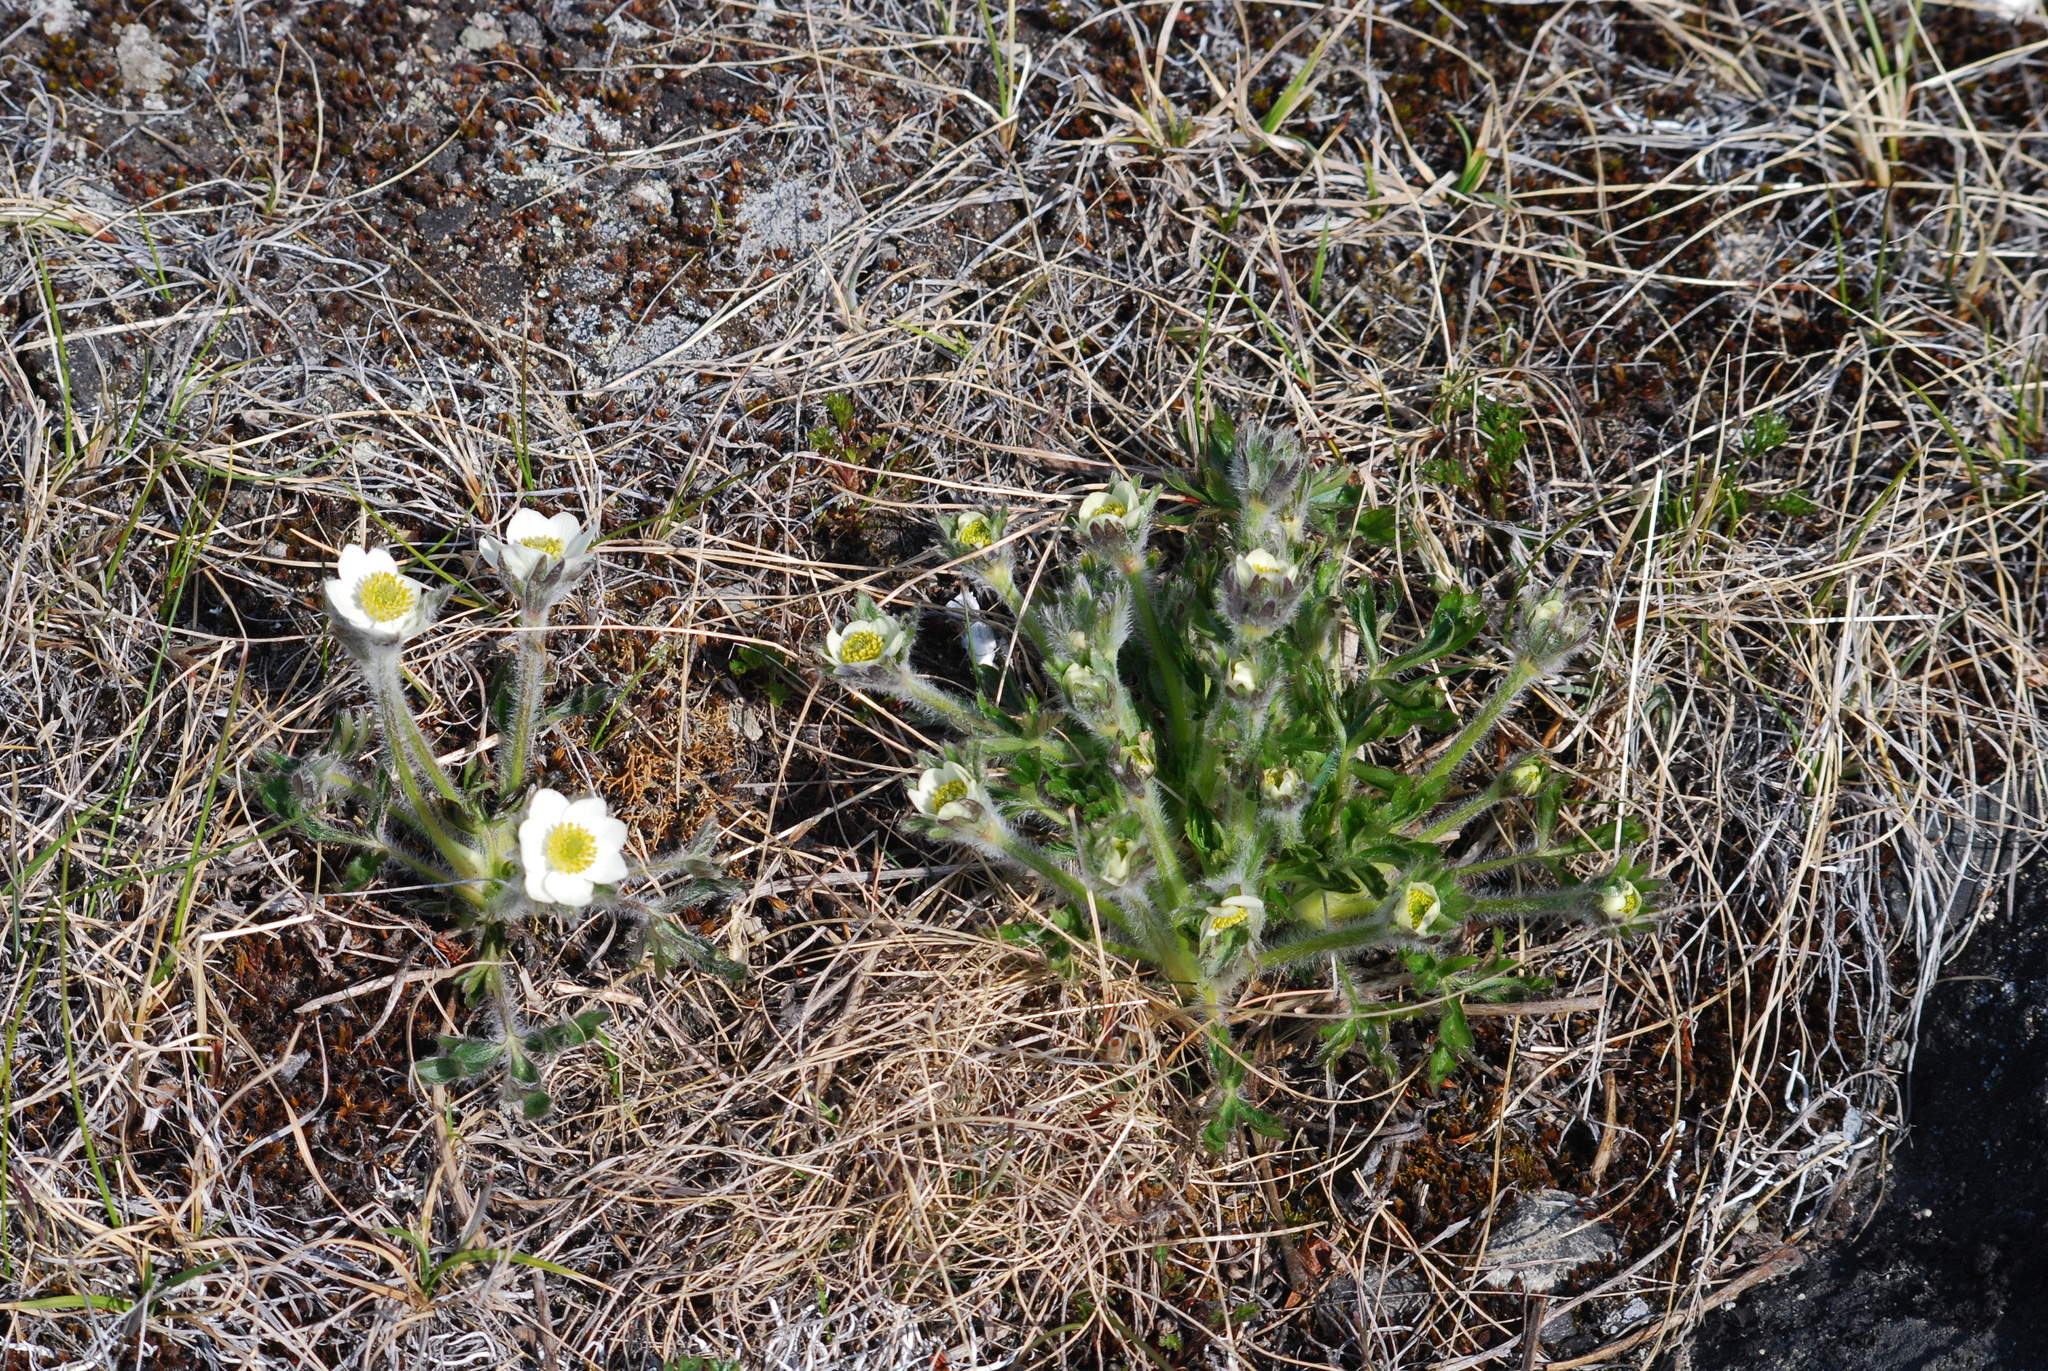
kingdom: Plantae
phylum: Tracheophyta
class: Magnoliopsida
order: Ranunculales
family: Ranunculaceae
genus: Anemonastrum
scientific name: Anemonastrum narcissiflorum
